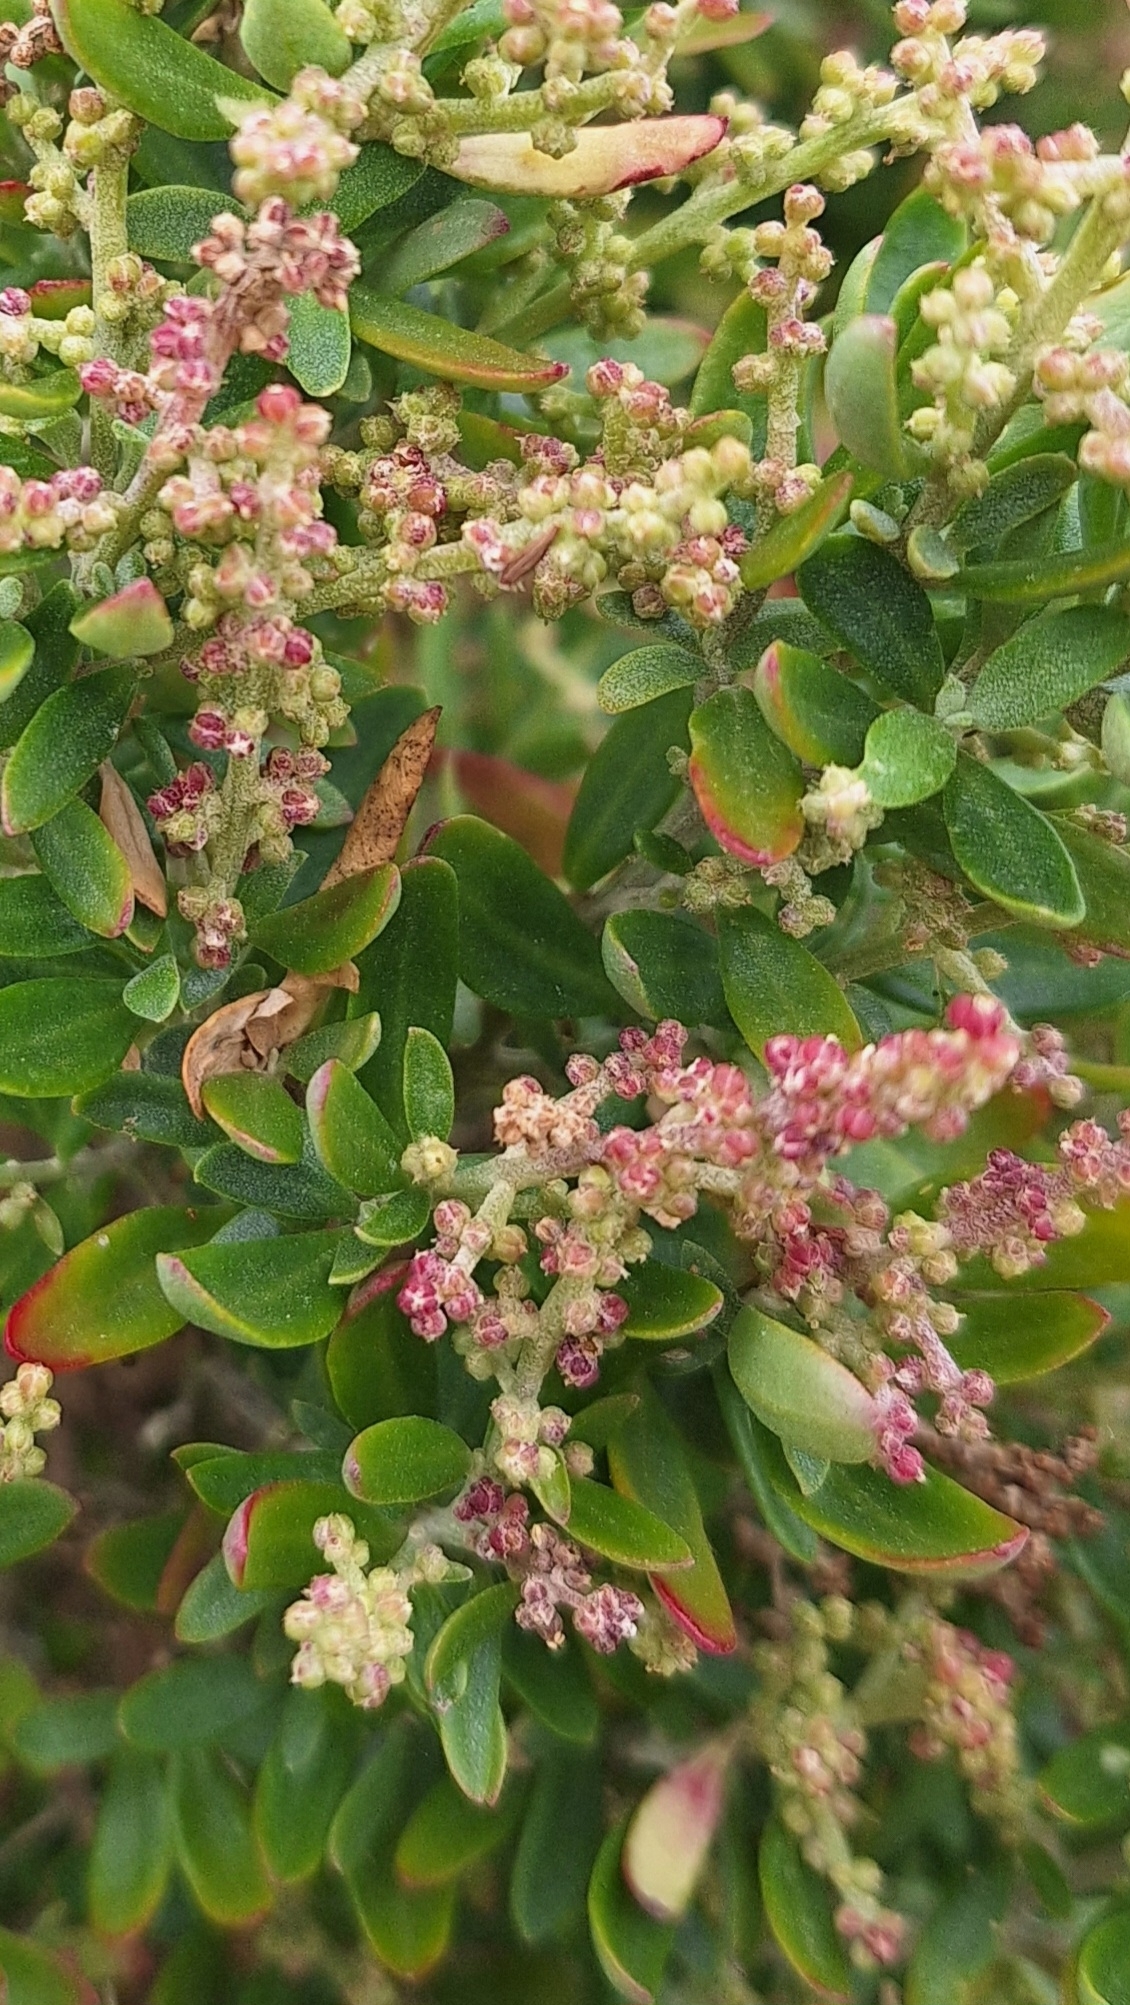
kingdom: Plantae
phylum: Tracheophyta
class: Magnoliopsida
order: Caryophyllales
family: Amaranthaceae
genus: Chenopodium
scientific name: Chenopodium candolleanum
